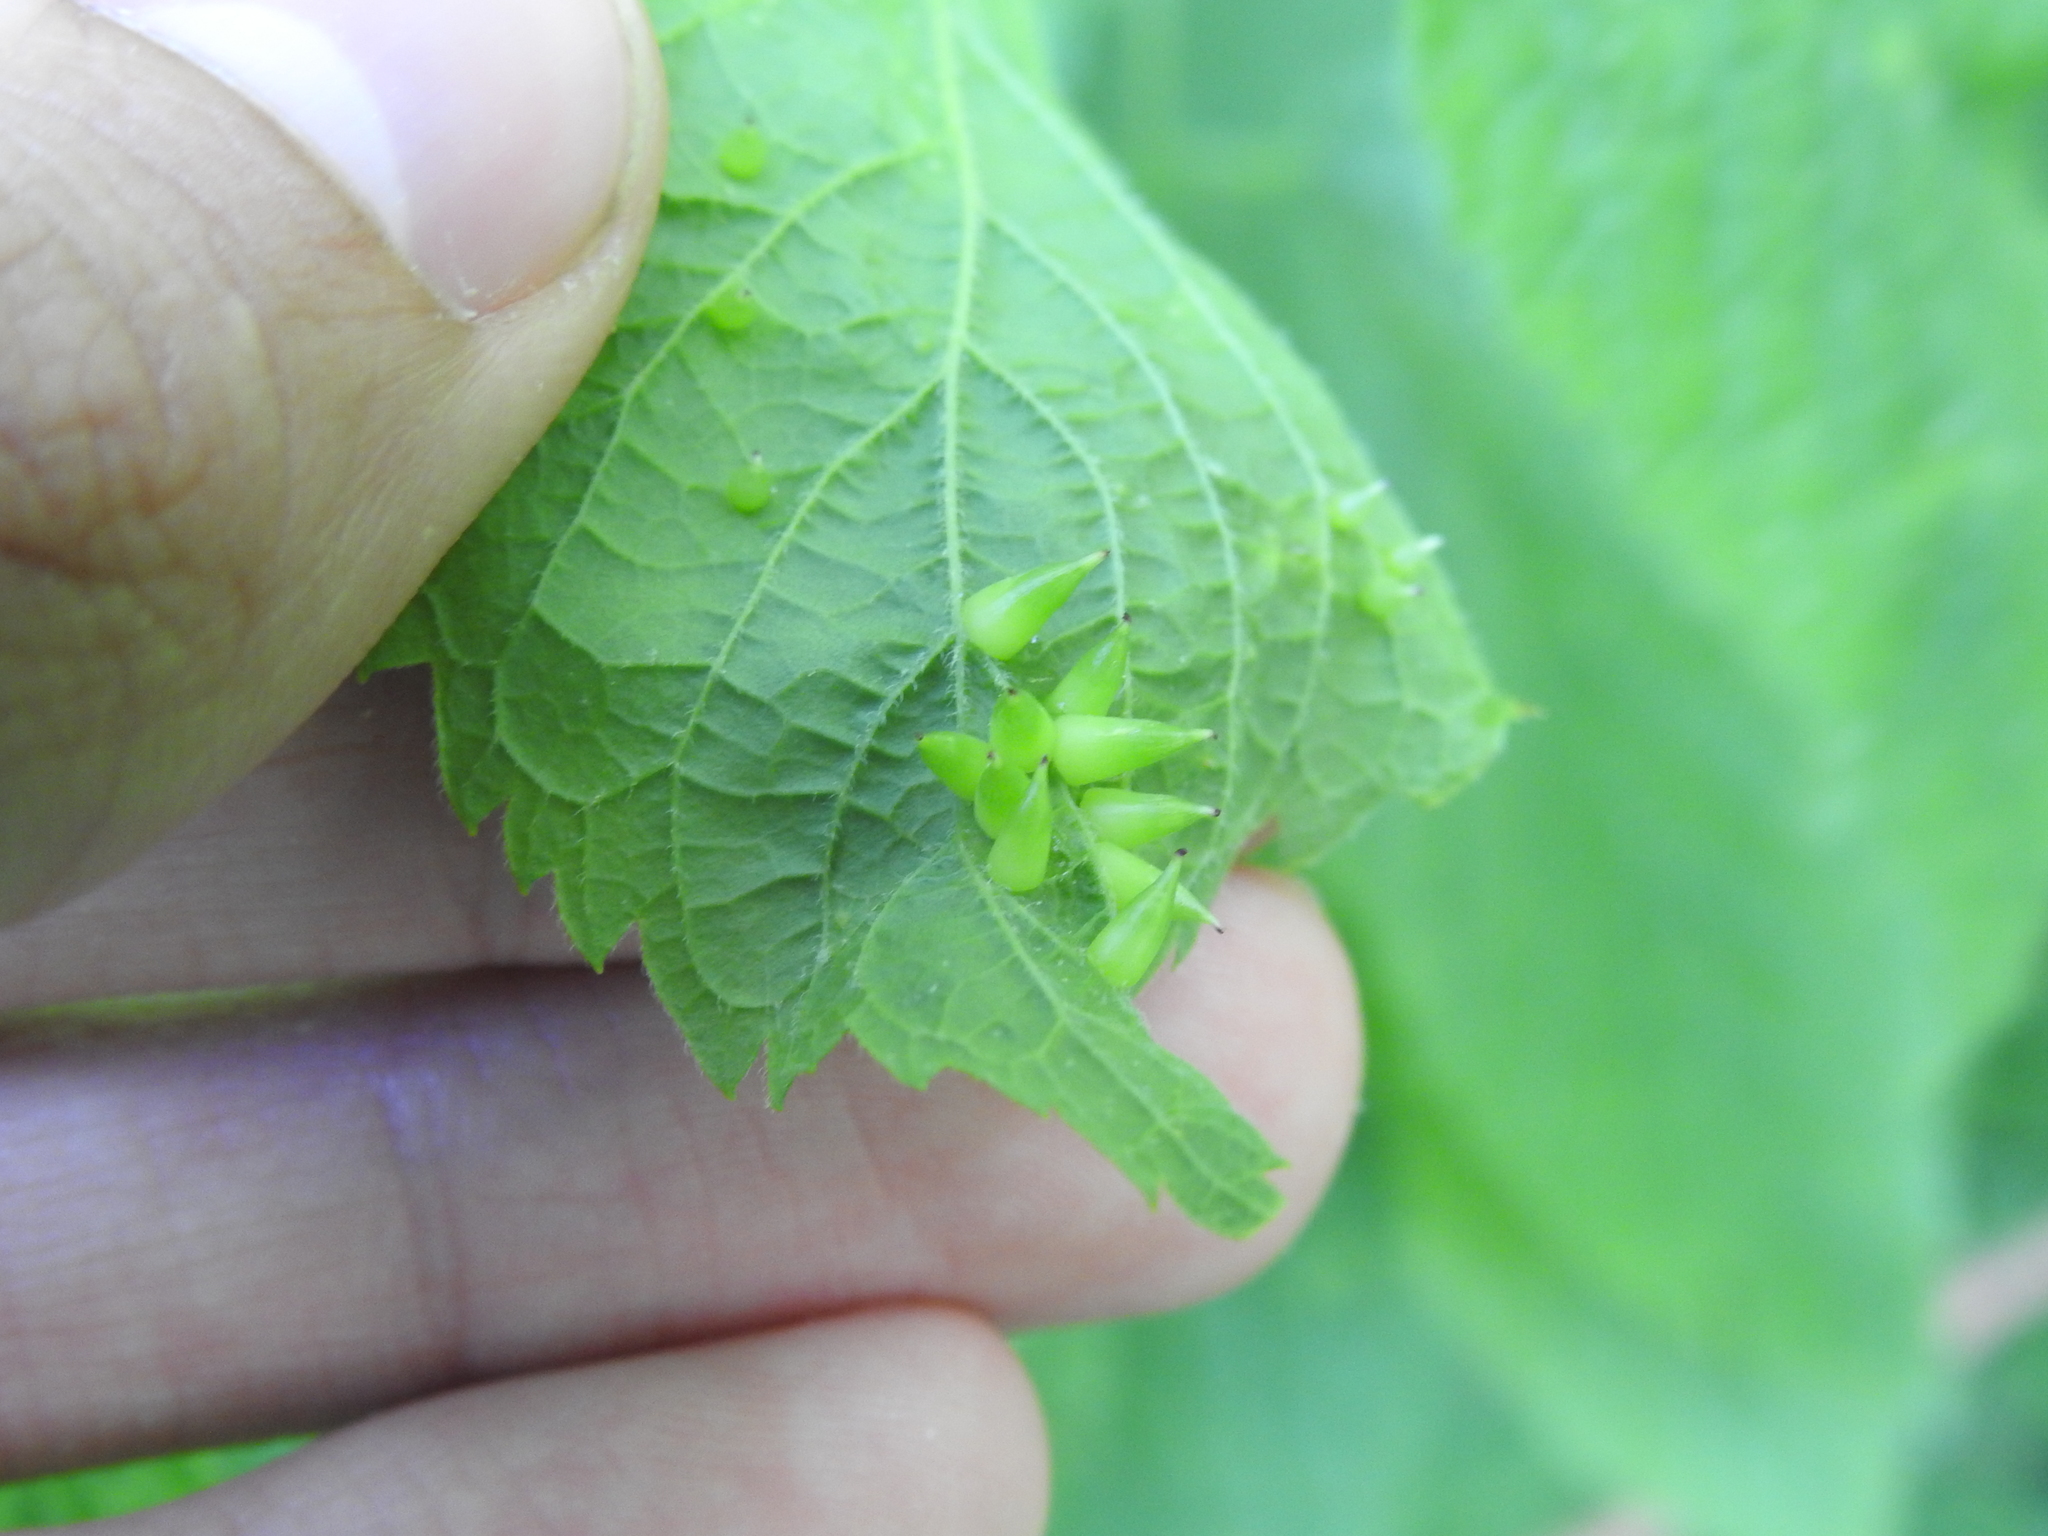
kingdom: Animalia
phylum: Arthropoda
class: Insecta
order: Diptera
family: Cecidomyiidae
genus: Celticecis
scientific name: Celticecis conica
